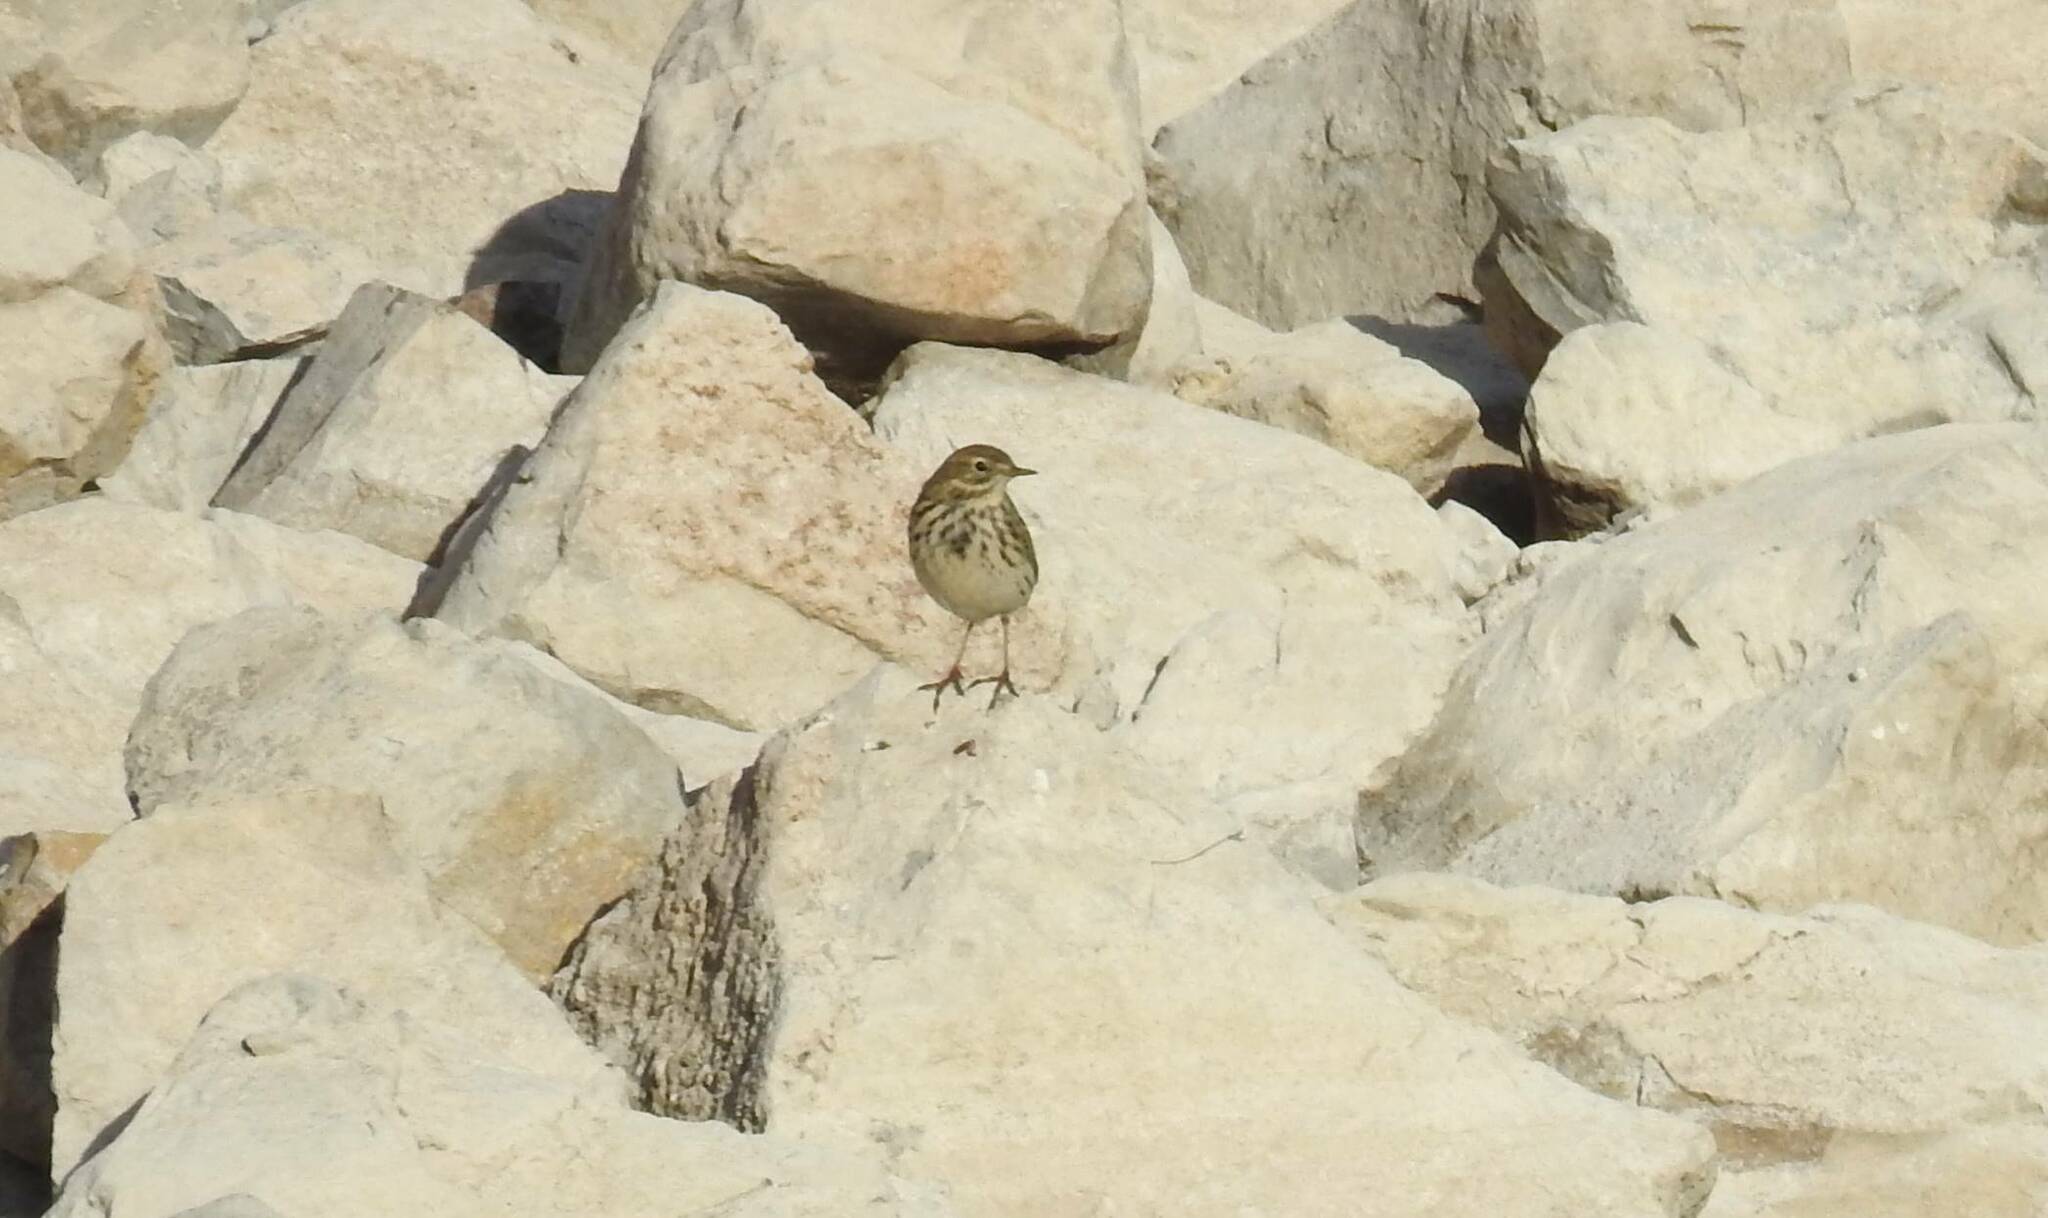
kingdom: Animalia
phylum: Chordata
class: Aves
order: Passeriformes
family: Motacillidae
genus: Anthus
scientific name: Anthus pratensis
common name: Meadow pipit
